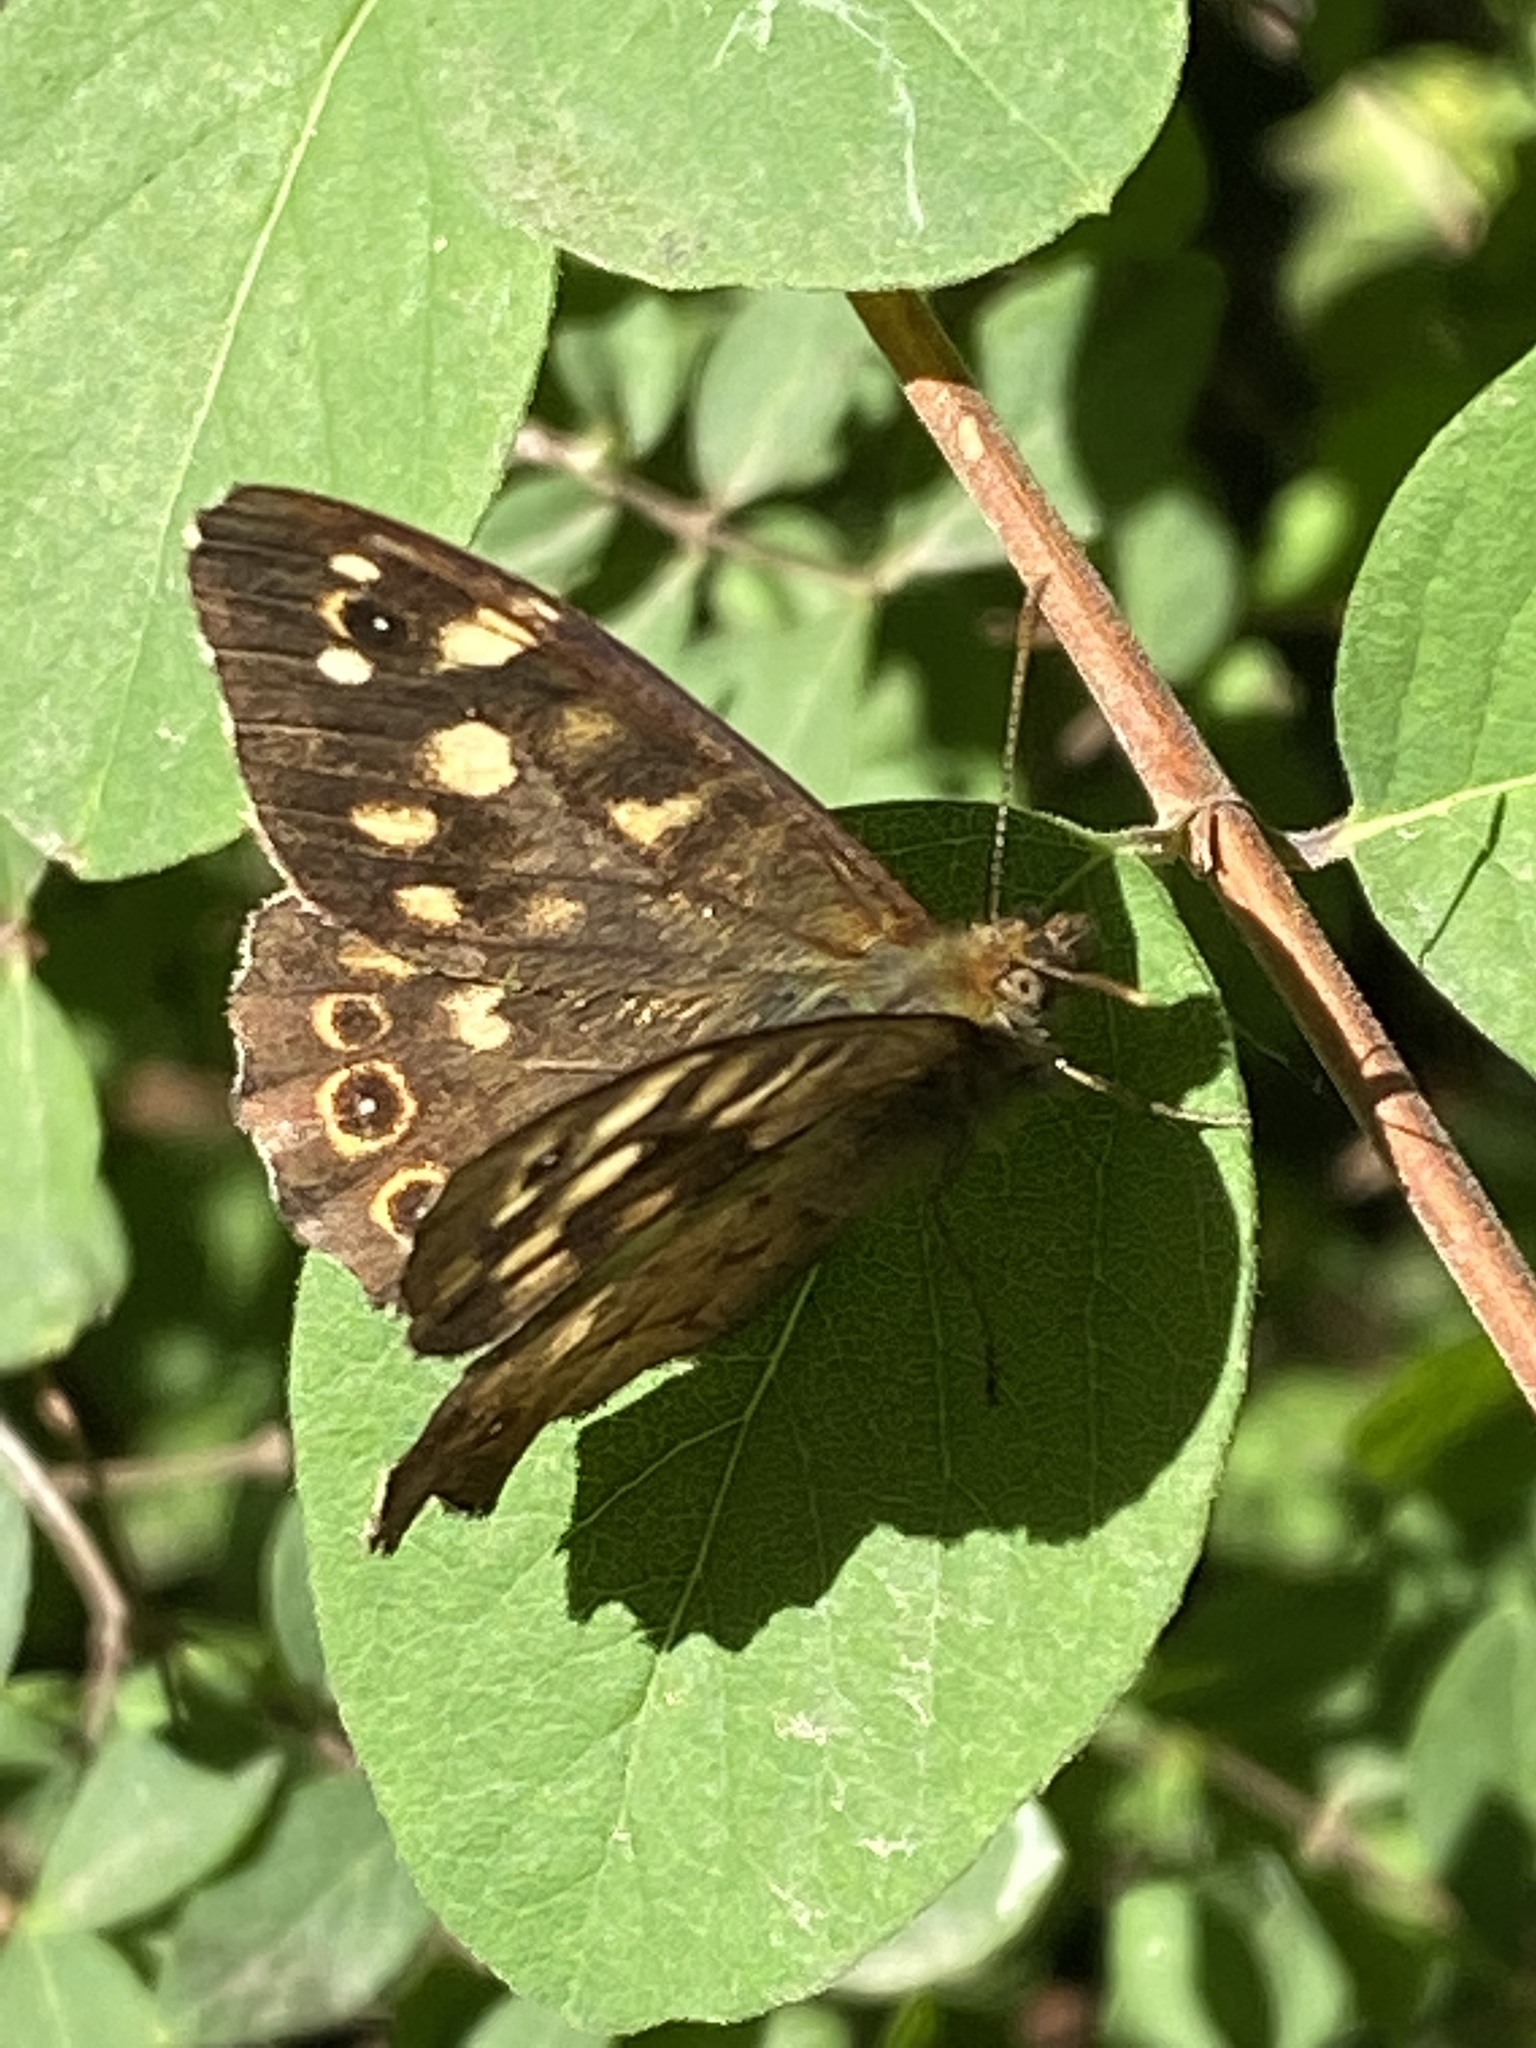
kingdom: Animalia
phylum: Arthropoda
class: Insecta
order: Lepidoptera
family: Nymphalidae
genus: Pararge
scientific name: Pararge aegeria
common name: Speckled wood
